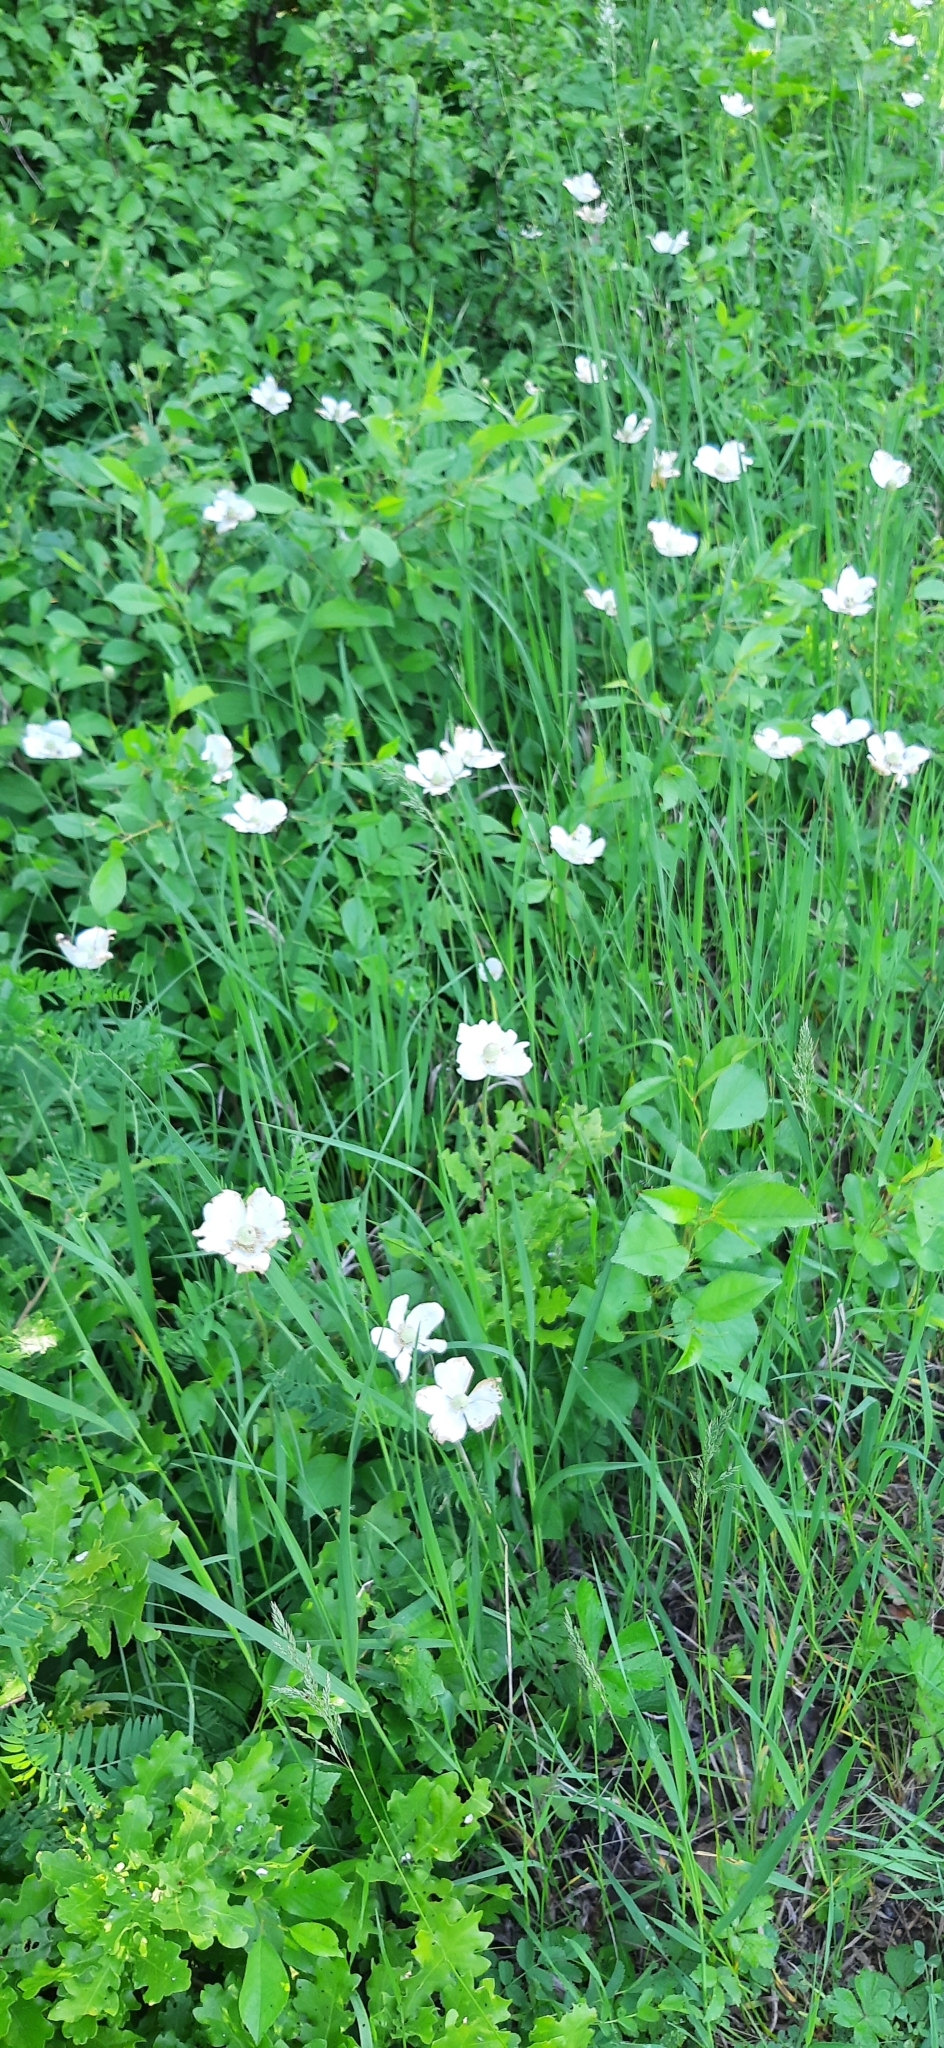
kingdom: Plantae
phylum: Tracheophyta
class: Magnoliopsida
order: Ranunculales
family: Ranunculaceae
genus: Anemone
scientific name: Anemone sylvestris
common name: Snowdrop anemone
